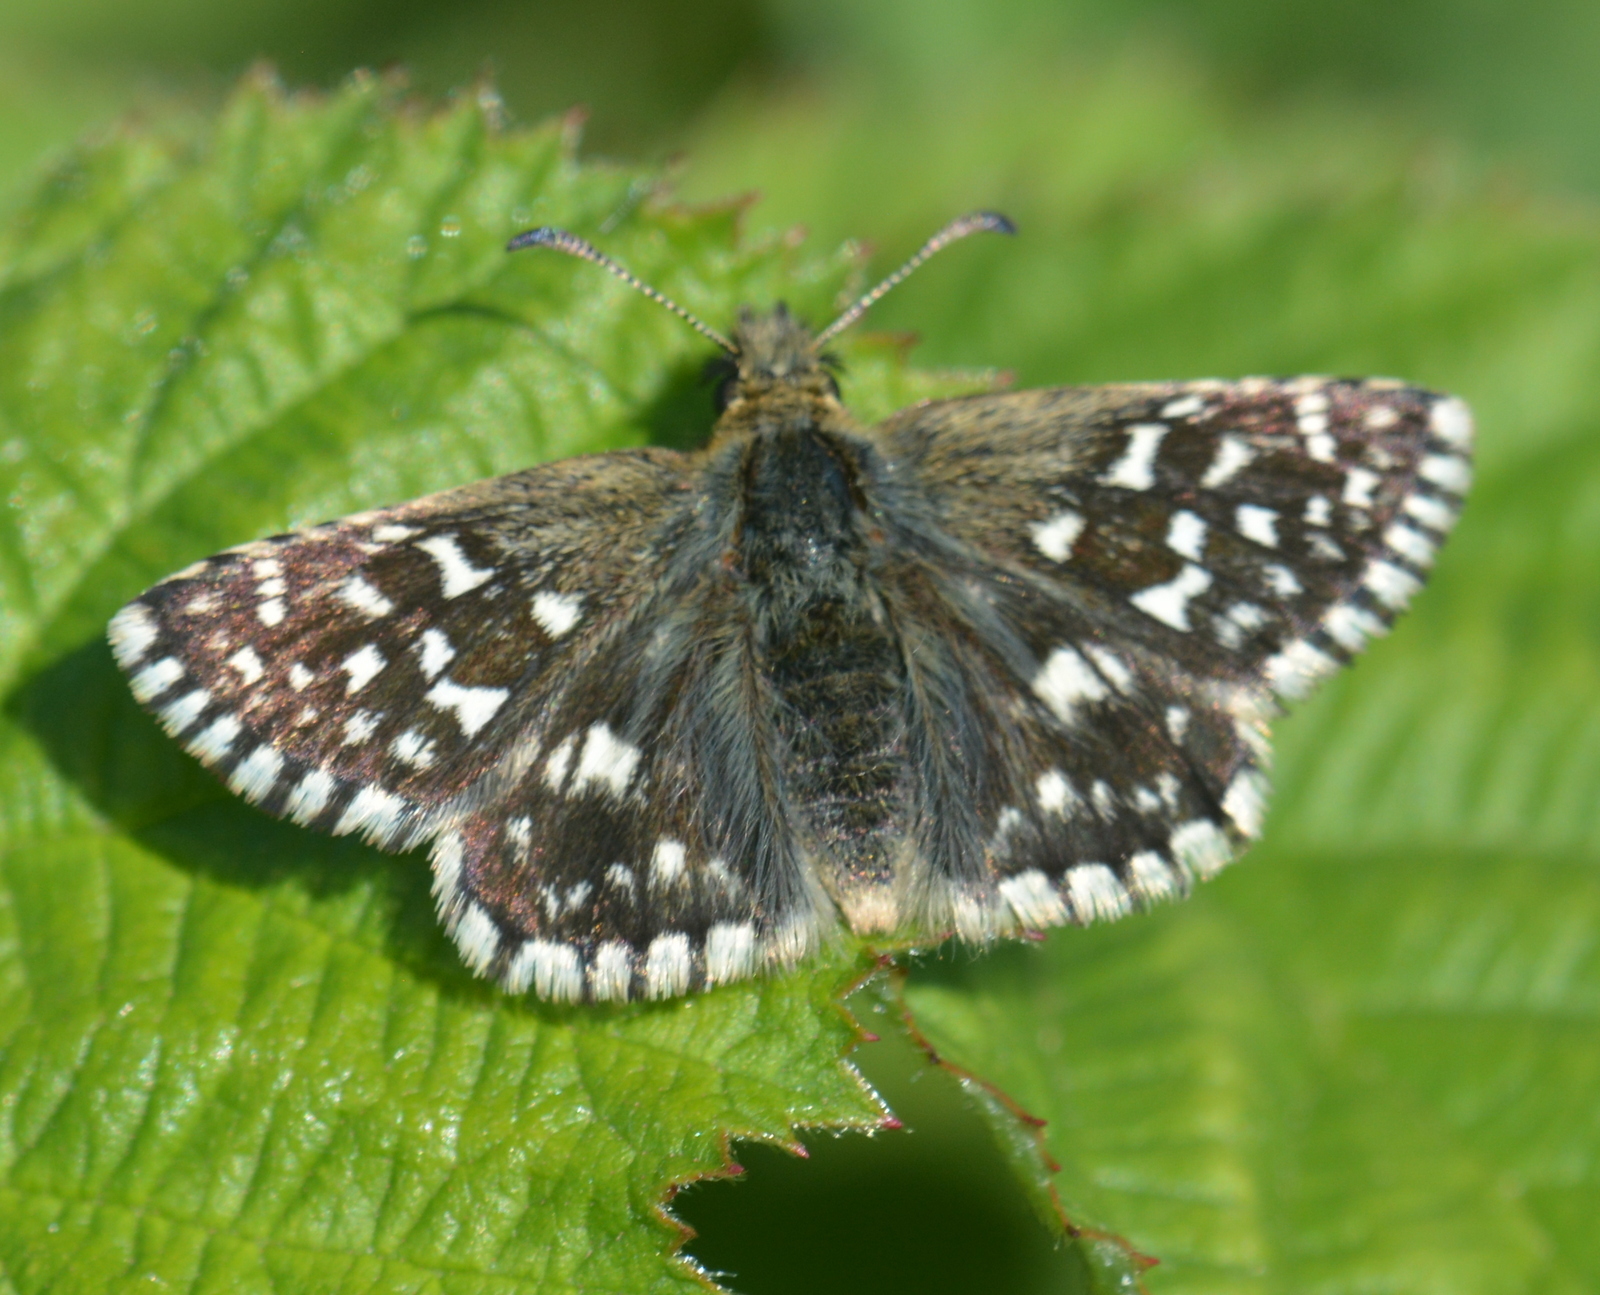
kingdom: Animalia
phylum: Arthropoda
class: Insecta
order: Lepidoptera
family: Hesperiidae
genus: Pyrgus
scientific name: Pyrgus malvae
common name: Grizzled skipper
